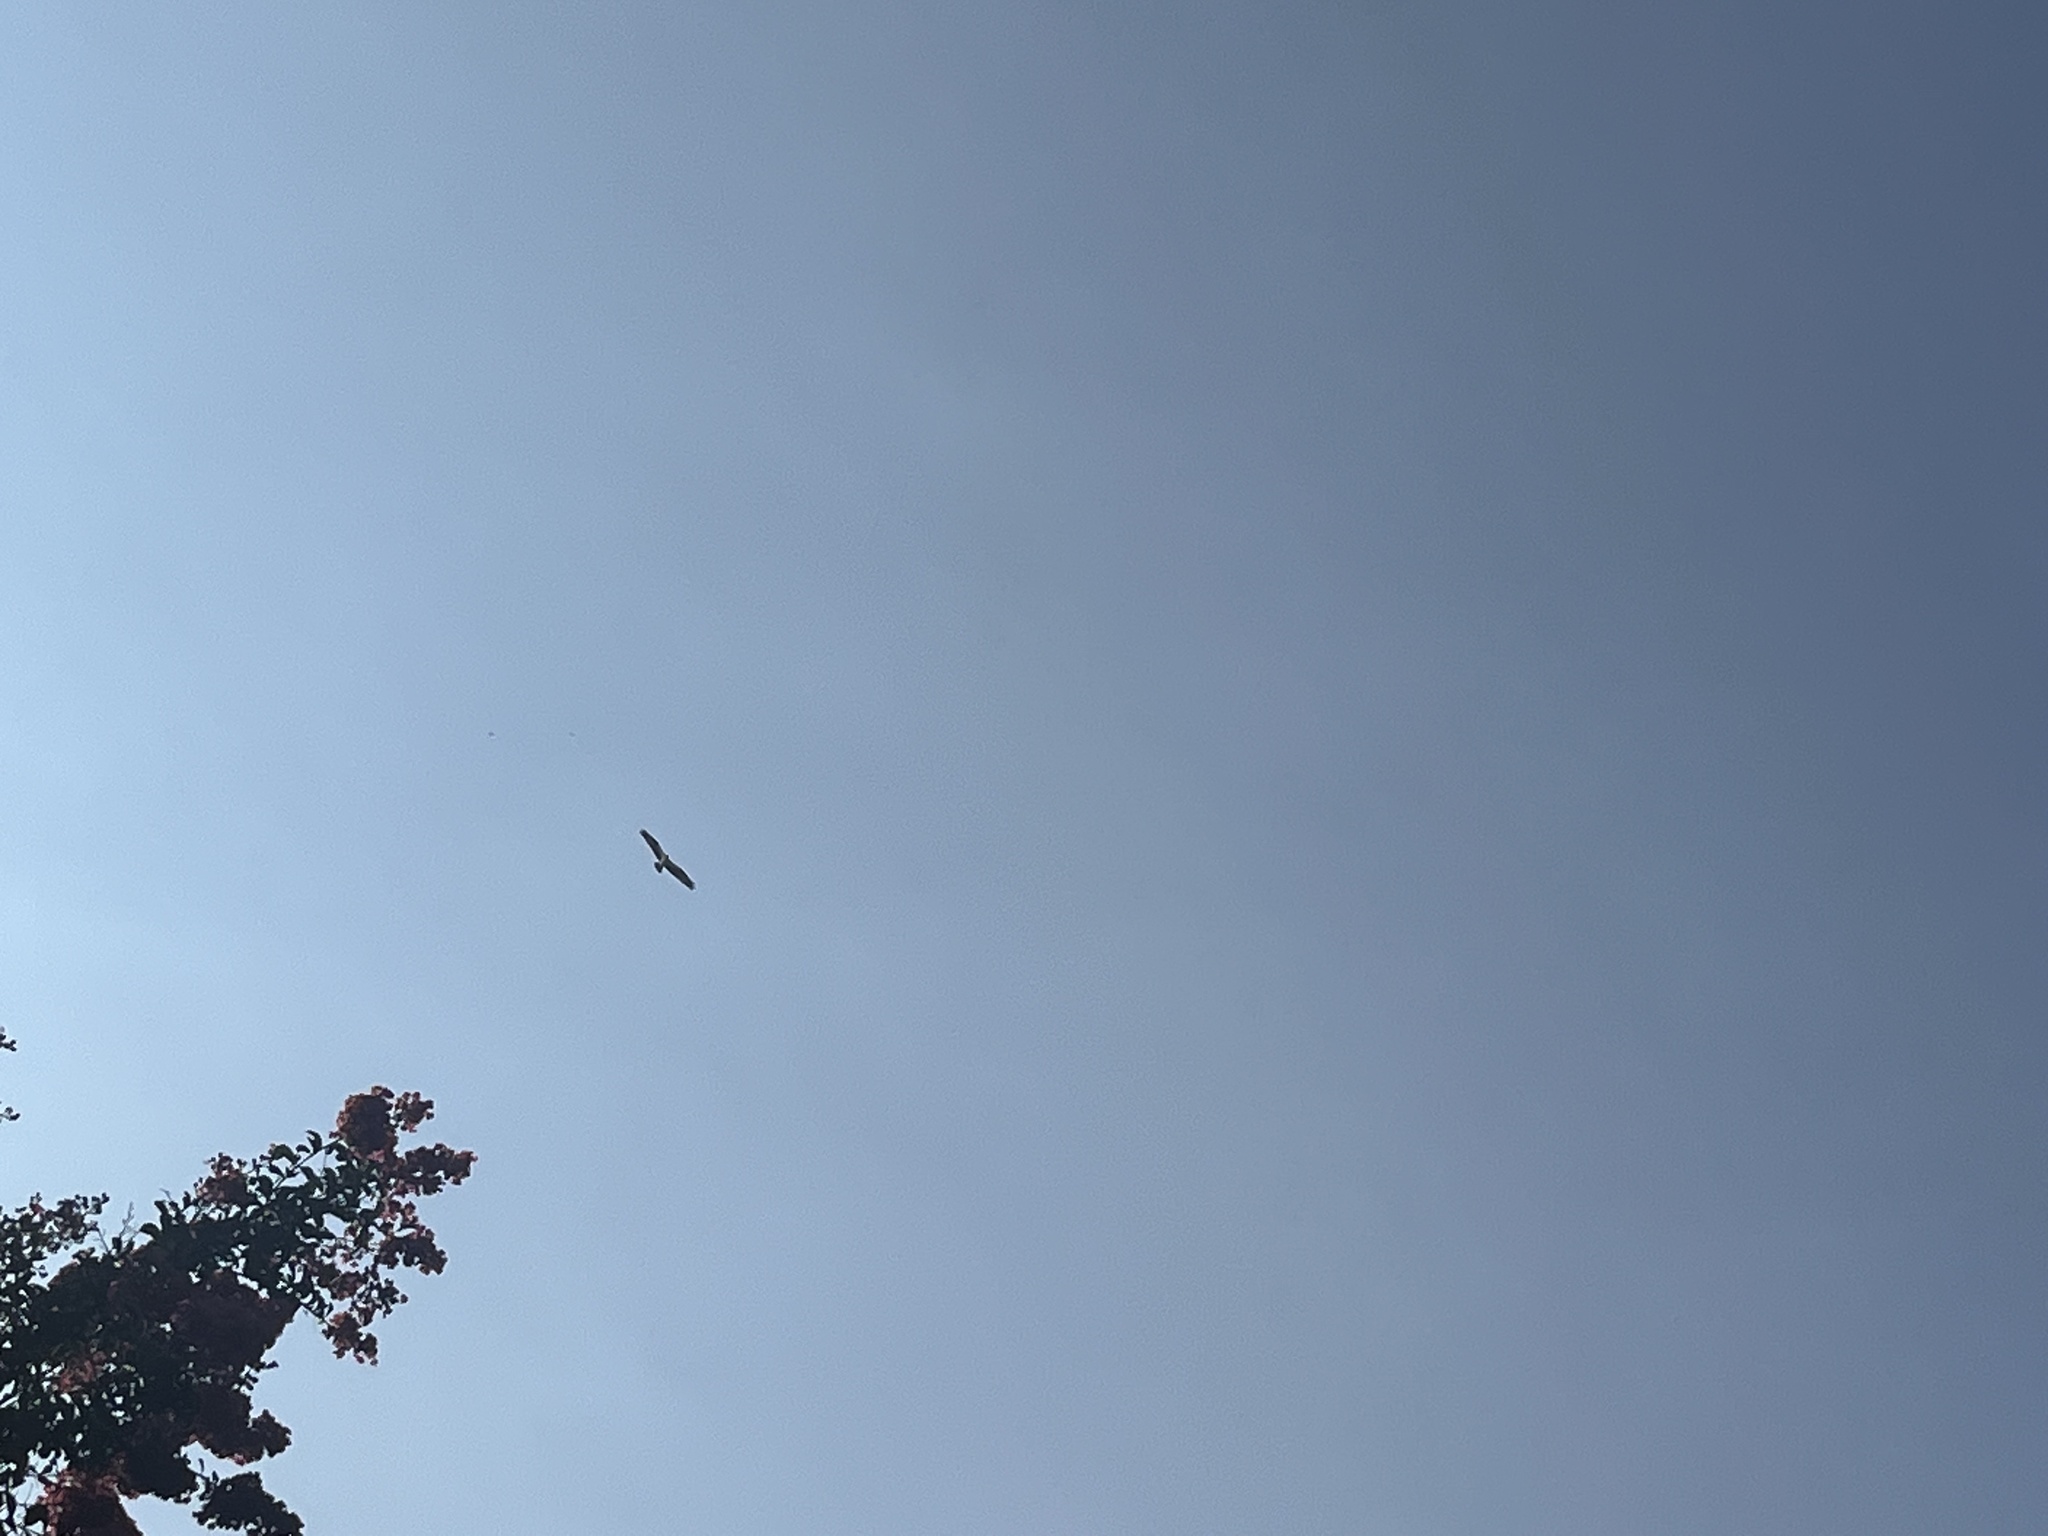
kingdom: Animalia
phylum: Chordata
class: Aves
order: Accipitriformes
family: Pandionidae
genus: Pandion
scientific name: Pandion haliaetus
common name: Osprey
